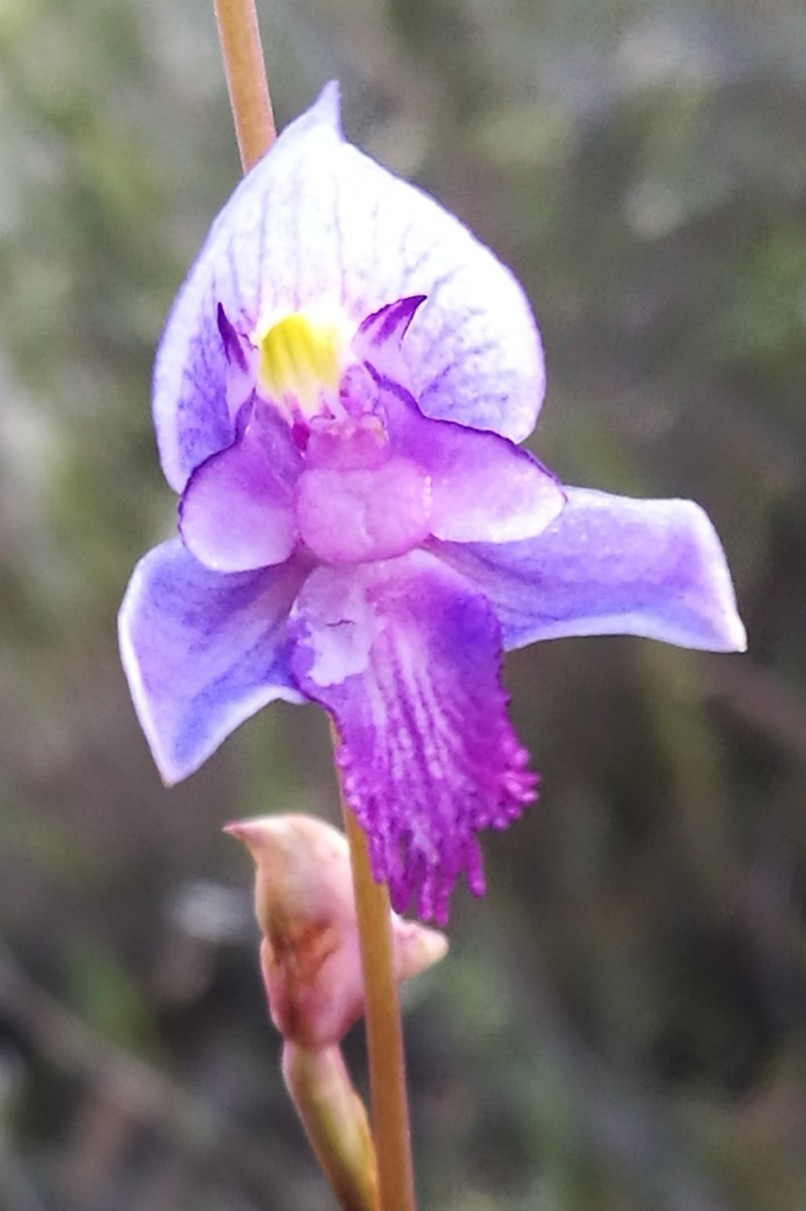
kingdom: Plantae
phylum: Tracheophyta
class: Liliopsida
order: Asparagales
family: Orchidaceae
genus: Disa
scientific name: Disa hians
